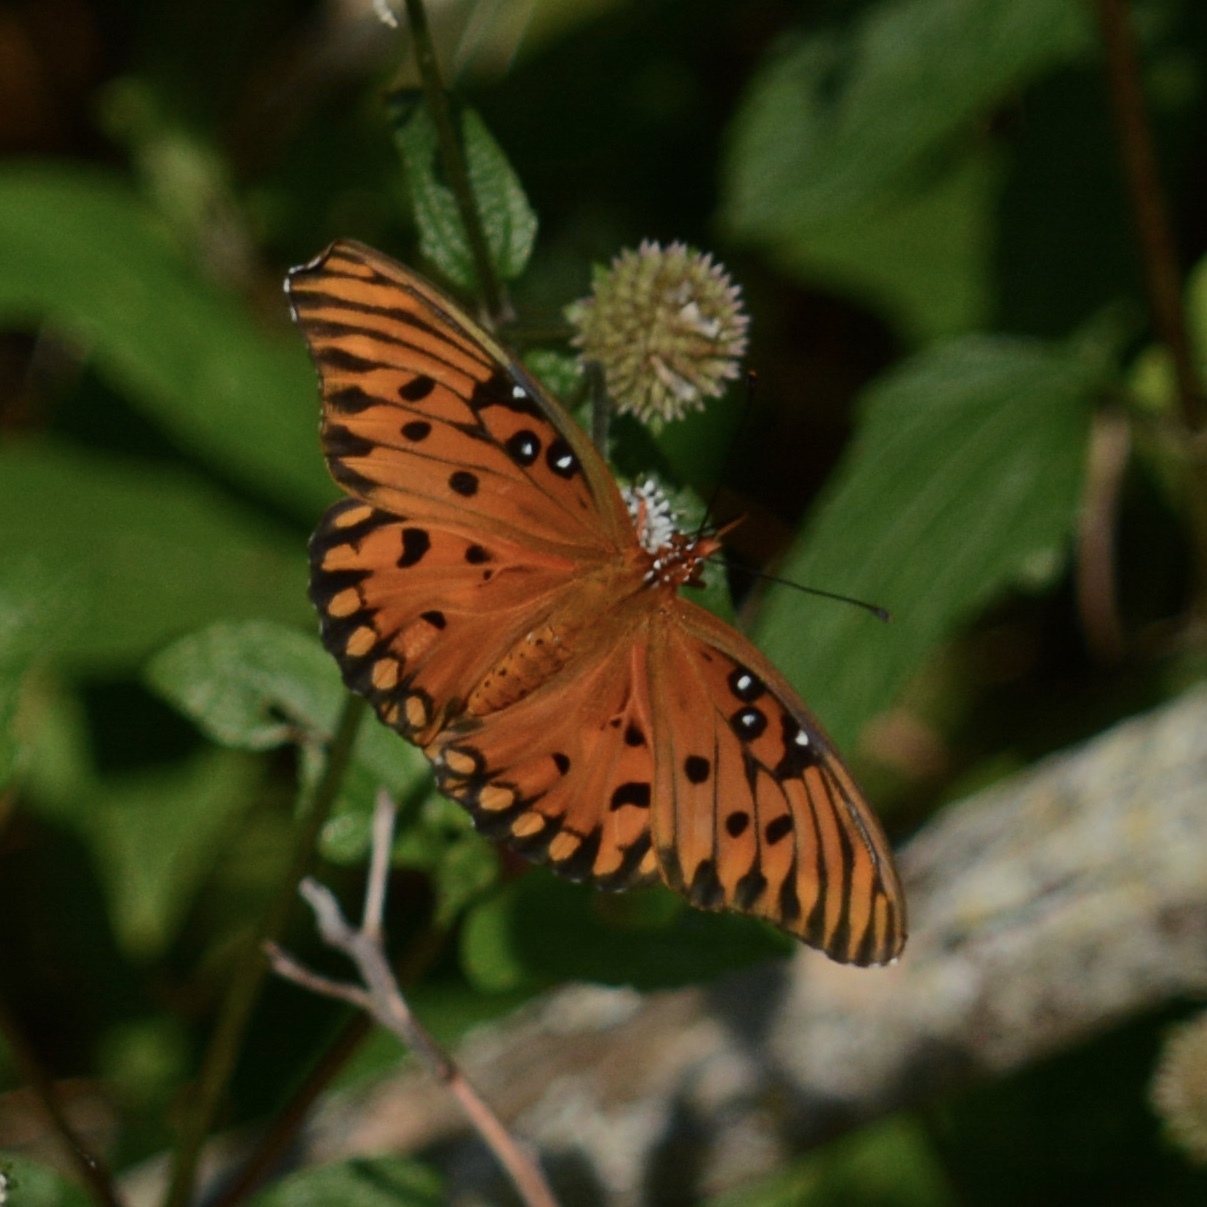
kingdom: Animalia
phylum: Arthropoda
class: Insecta
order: Lepidoptera
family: Nymphalidae
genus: Dione
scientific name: Dione vanillae
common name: Gulf fritillary
